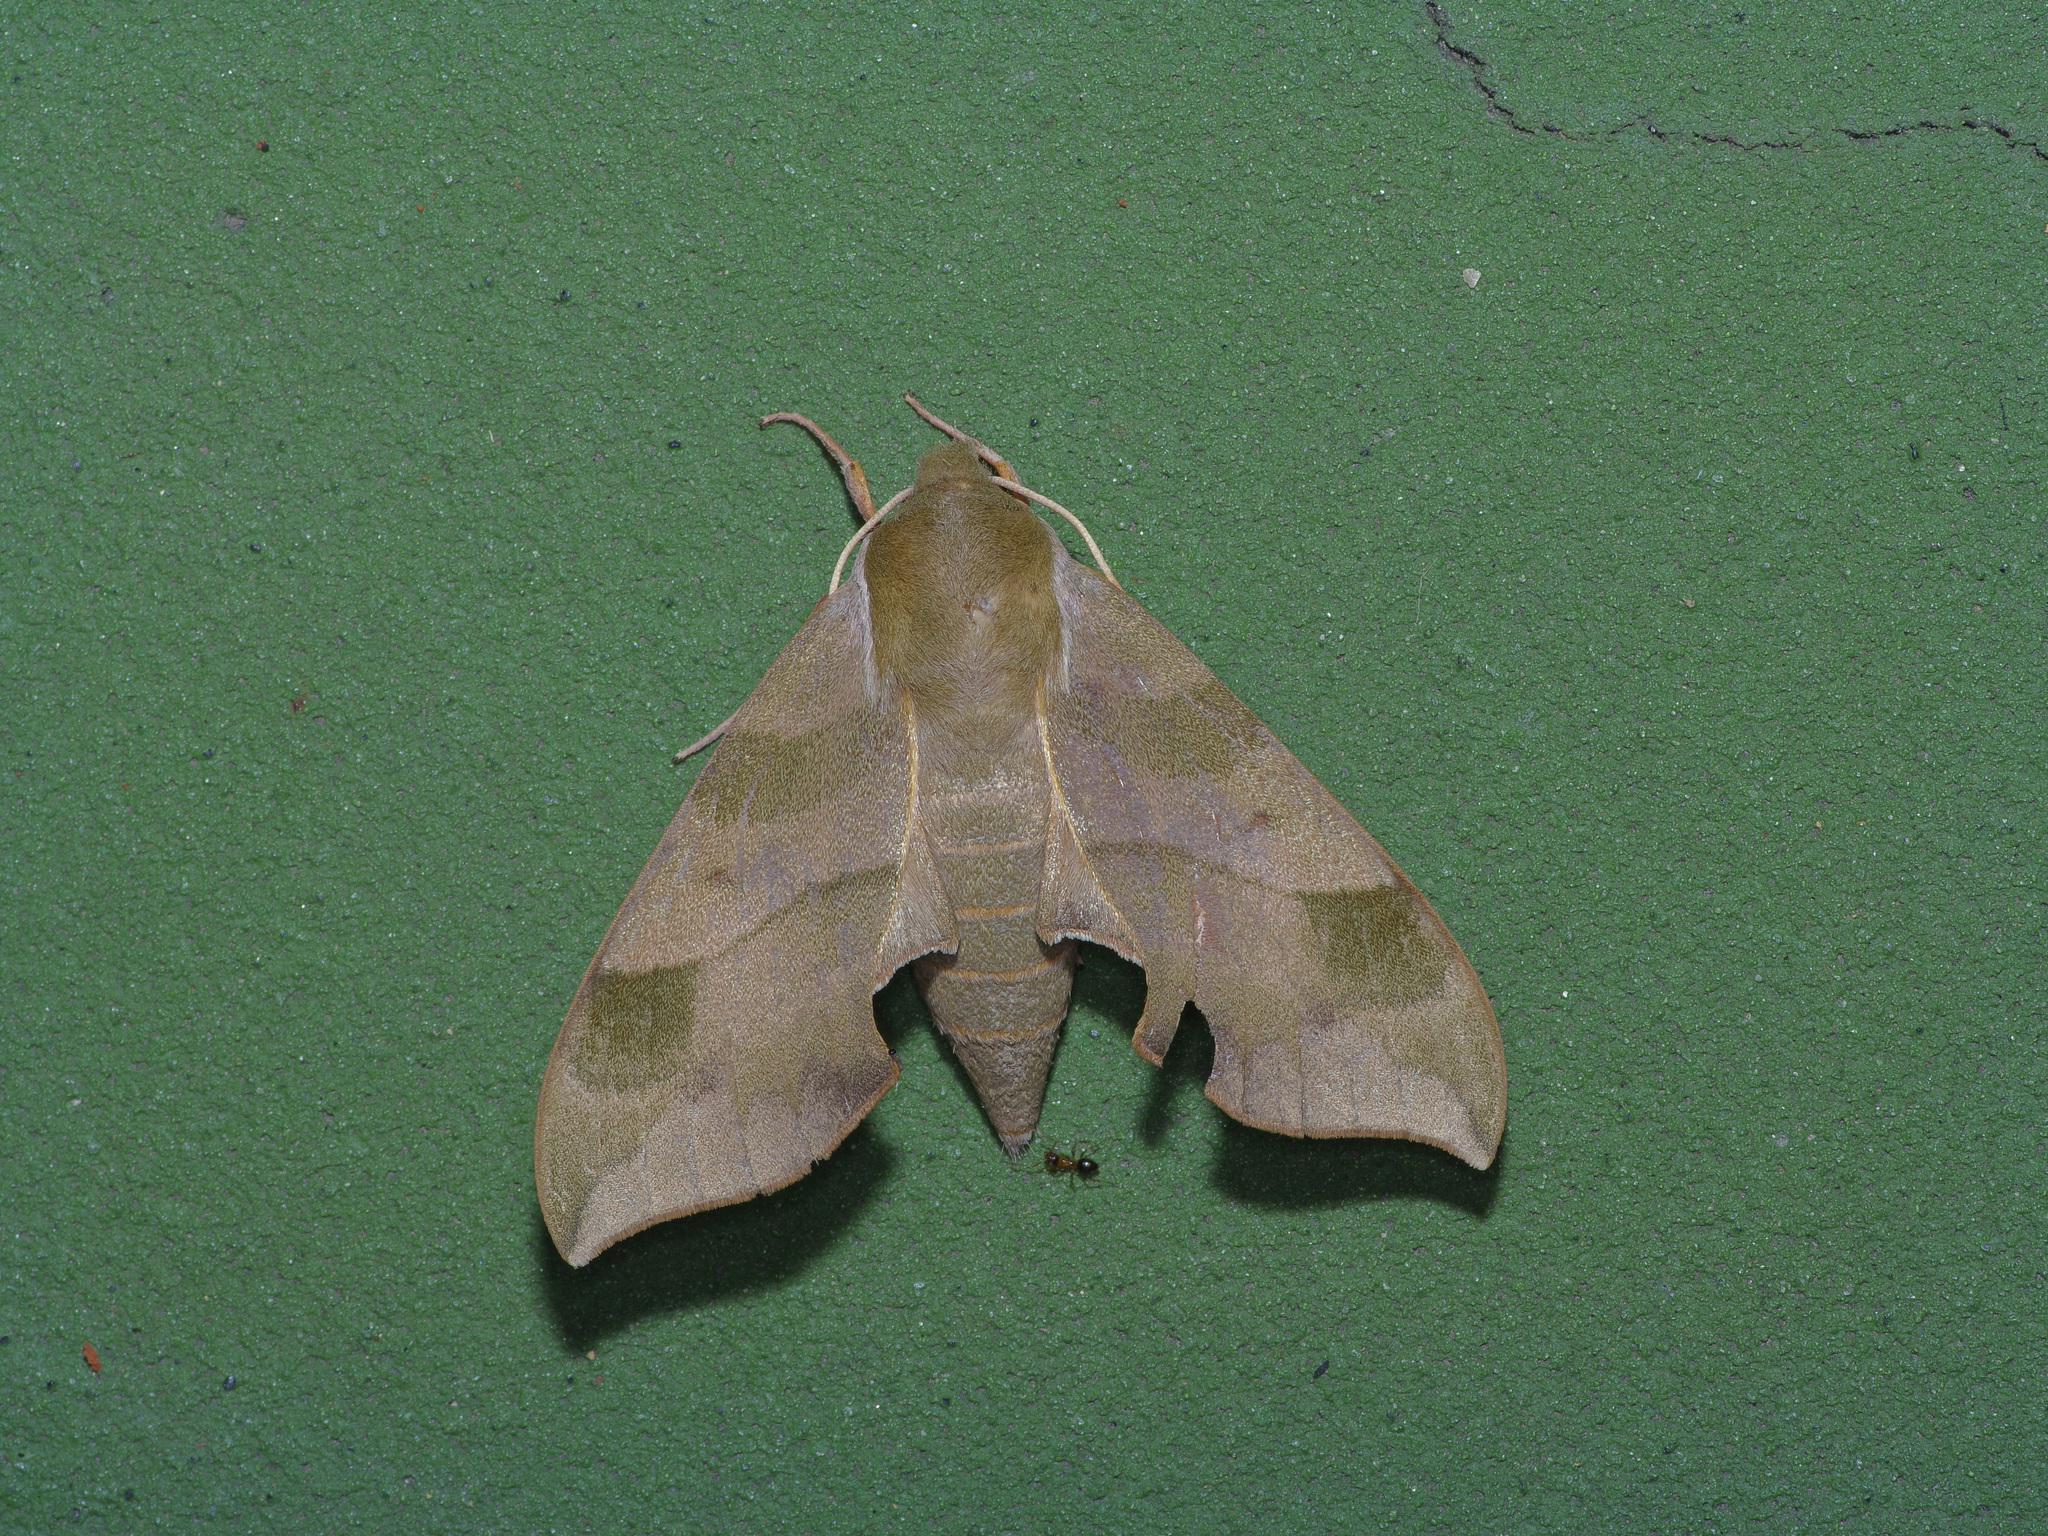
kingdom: Animalia
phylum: Arthropoda
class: Insecta
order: Lepidoptera
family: Sphingidae
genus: Darapsa
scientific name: Darapsa myron
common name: Hog sphinx
